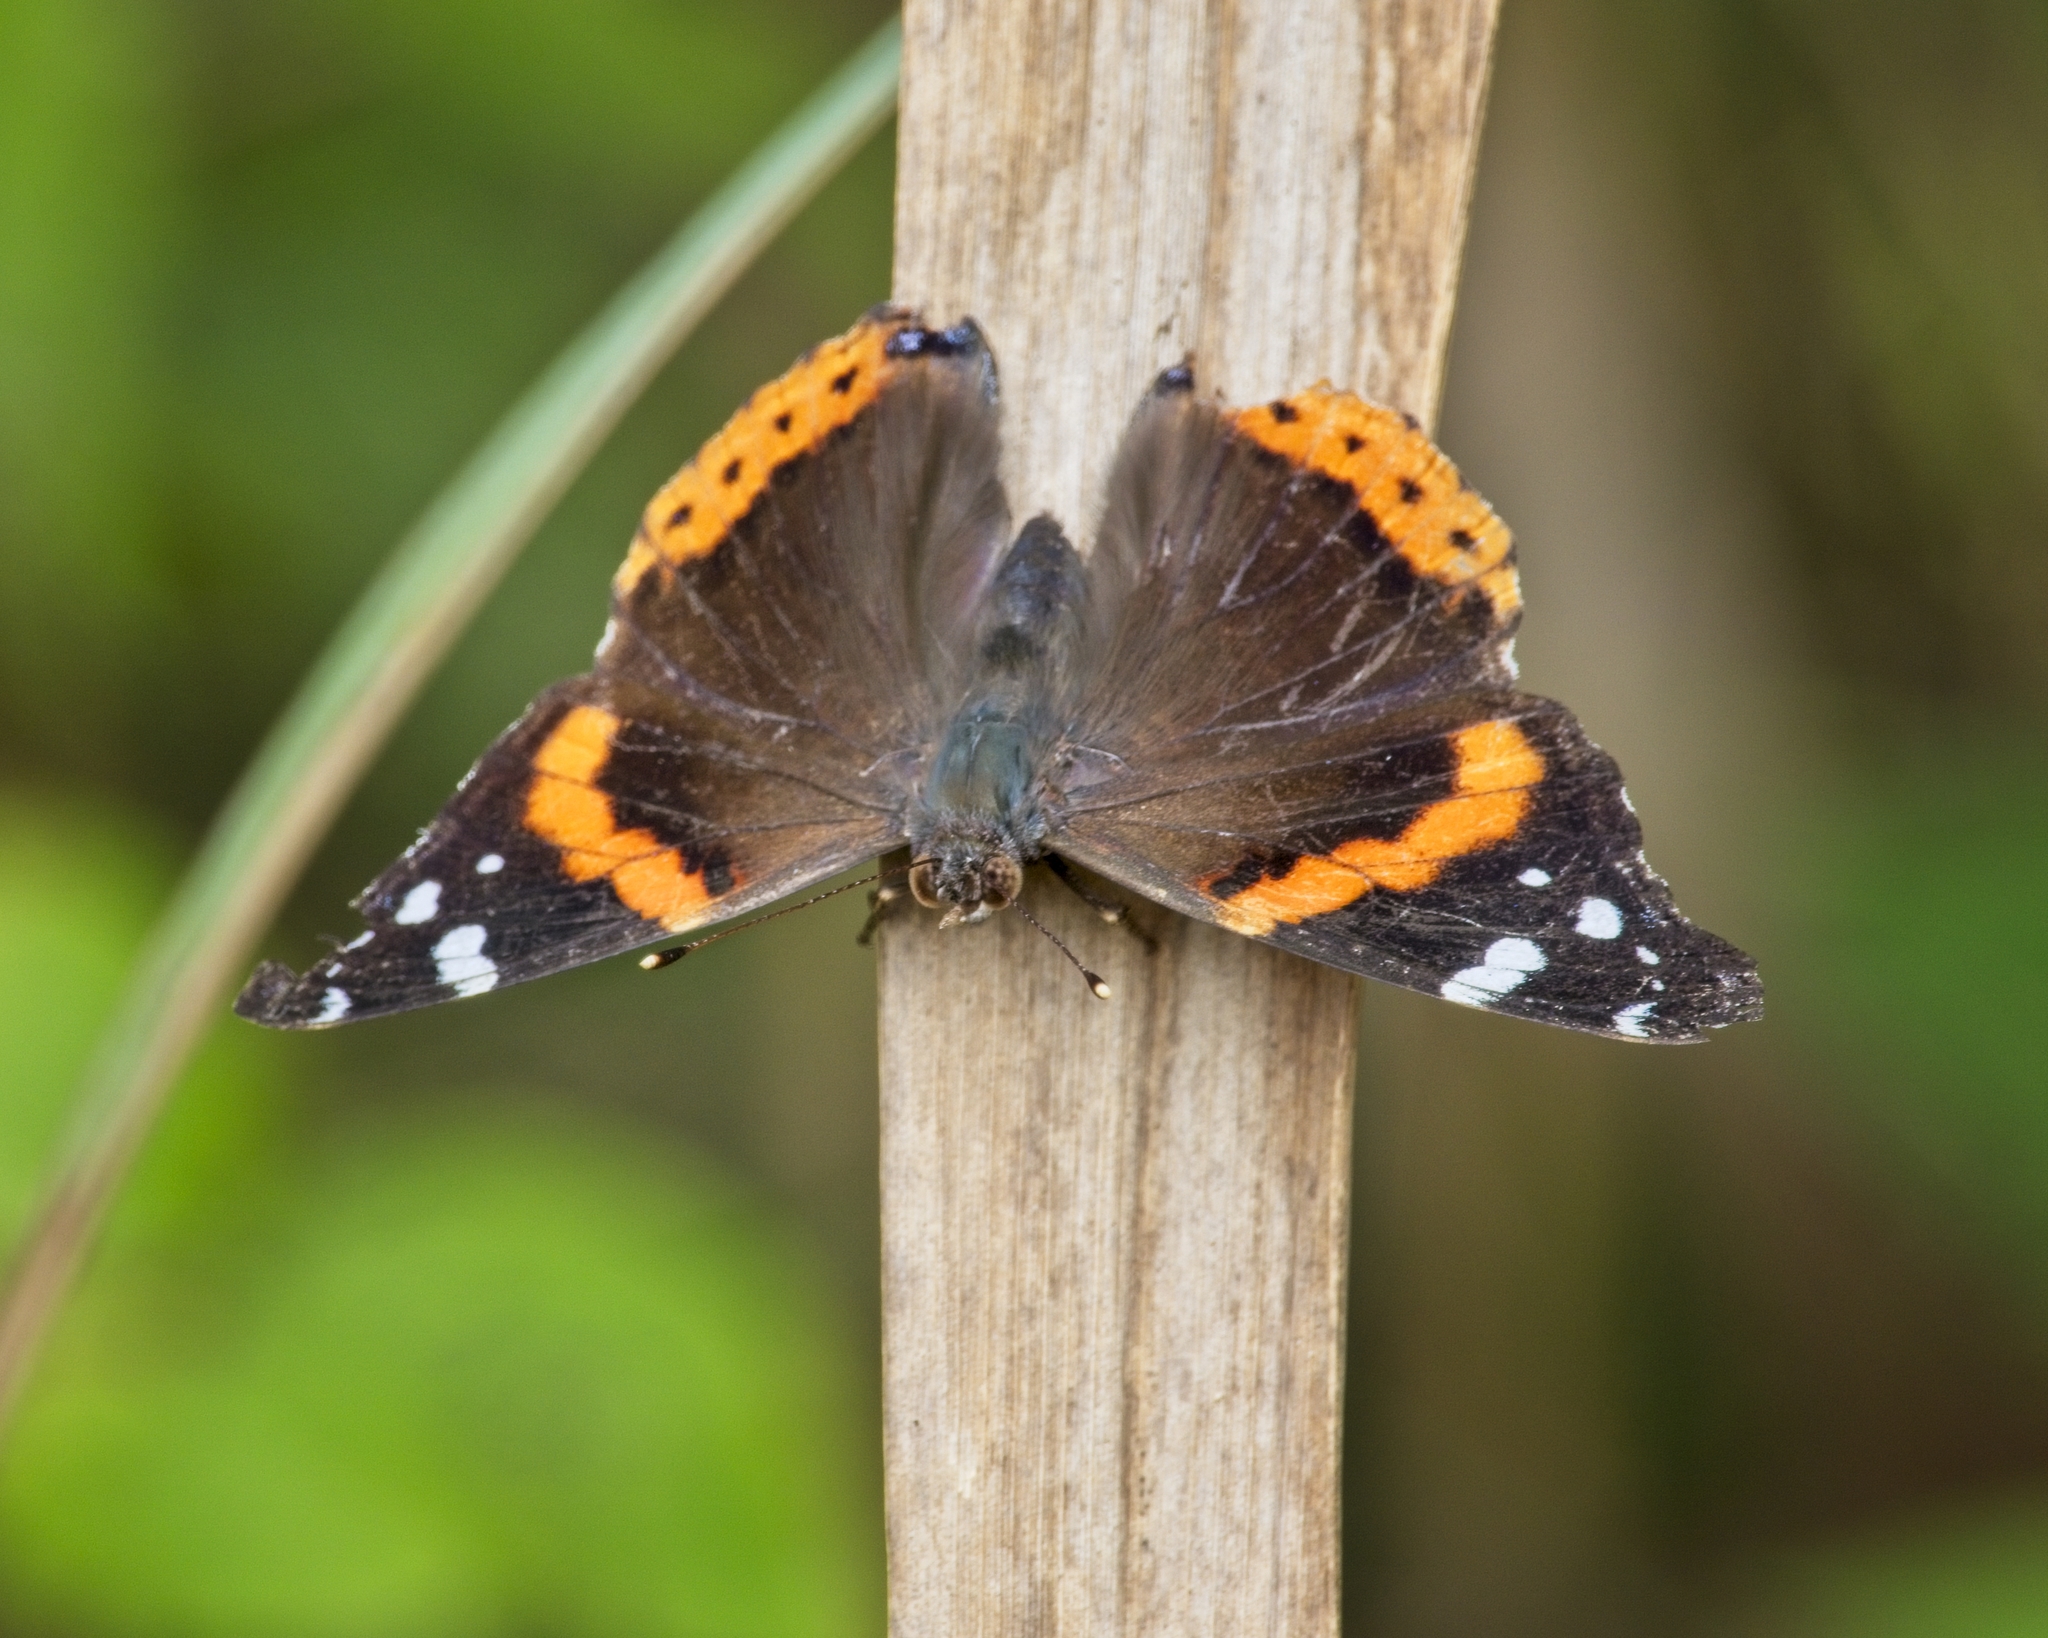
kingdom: Animalia
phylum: Arthropoda
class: Insecta
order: Lepidoptera
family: Nymphalidae
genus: Vanessa
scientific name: Vanessa atalanta
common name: Red admiral
